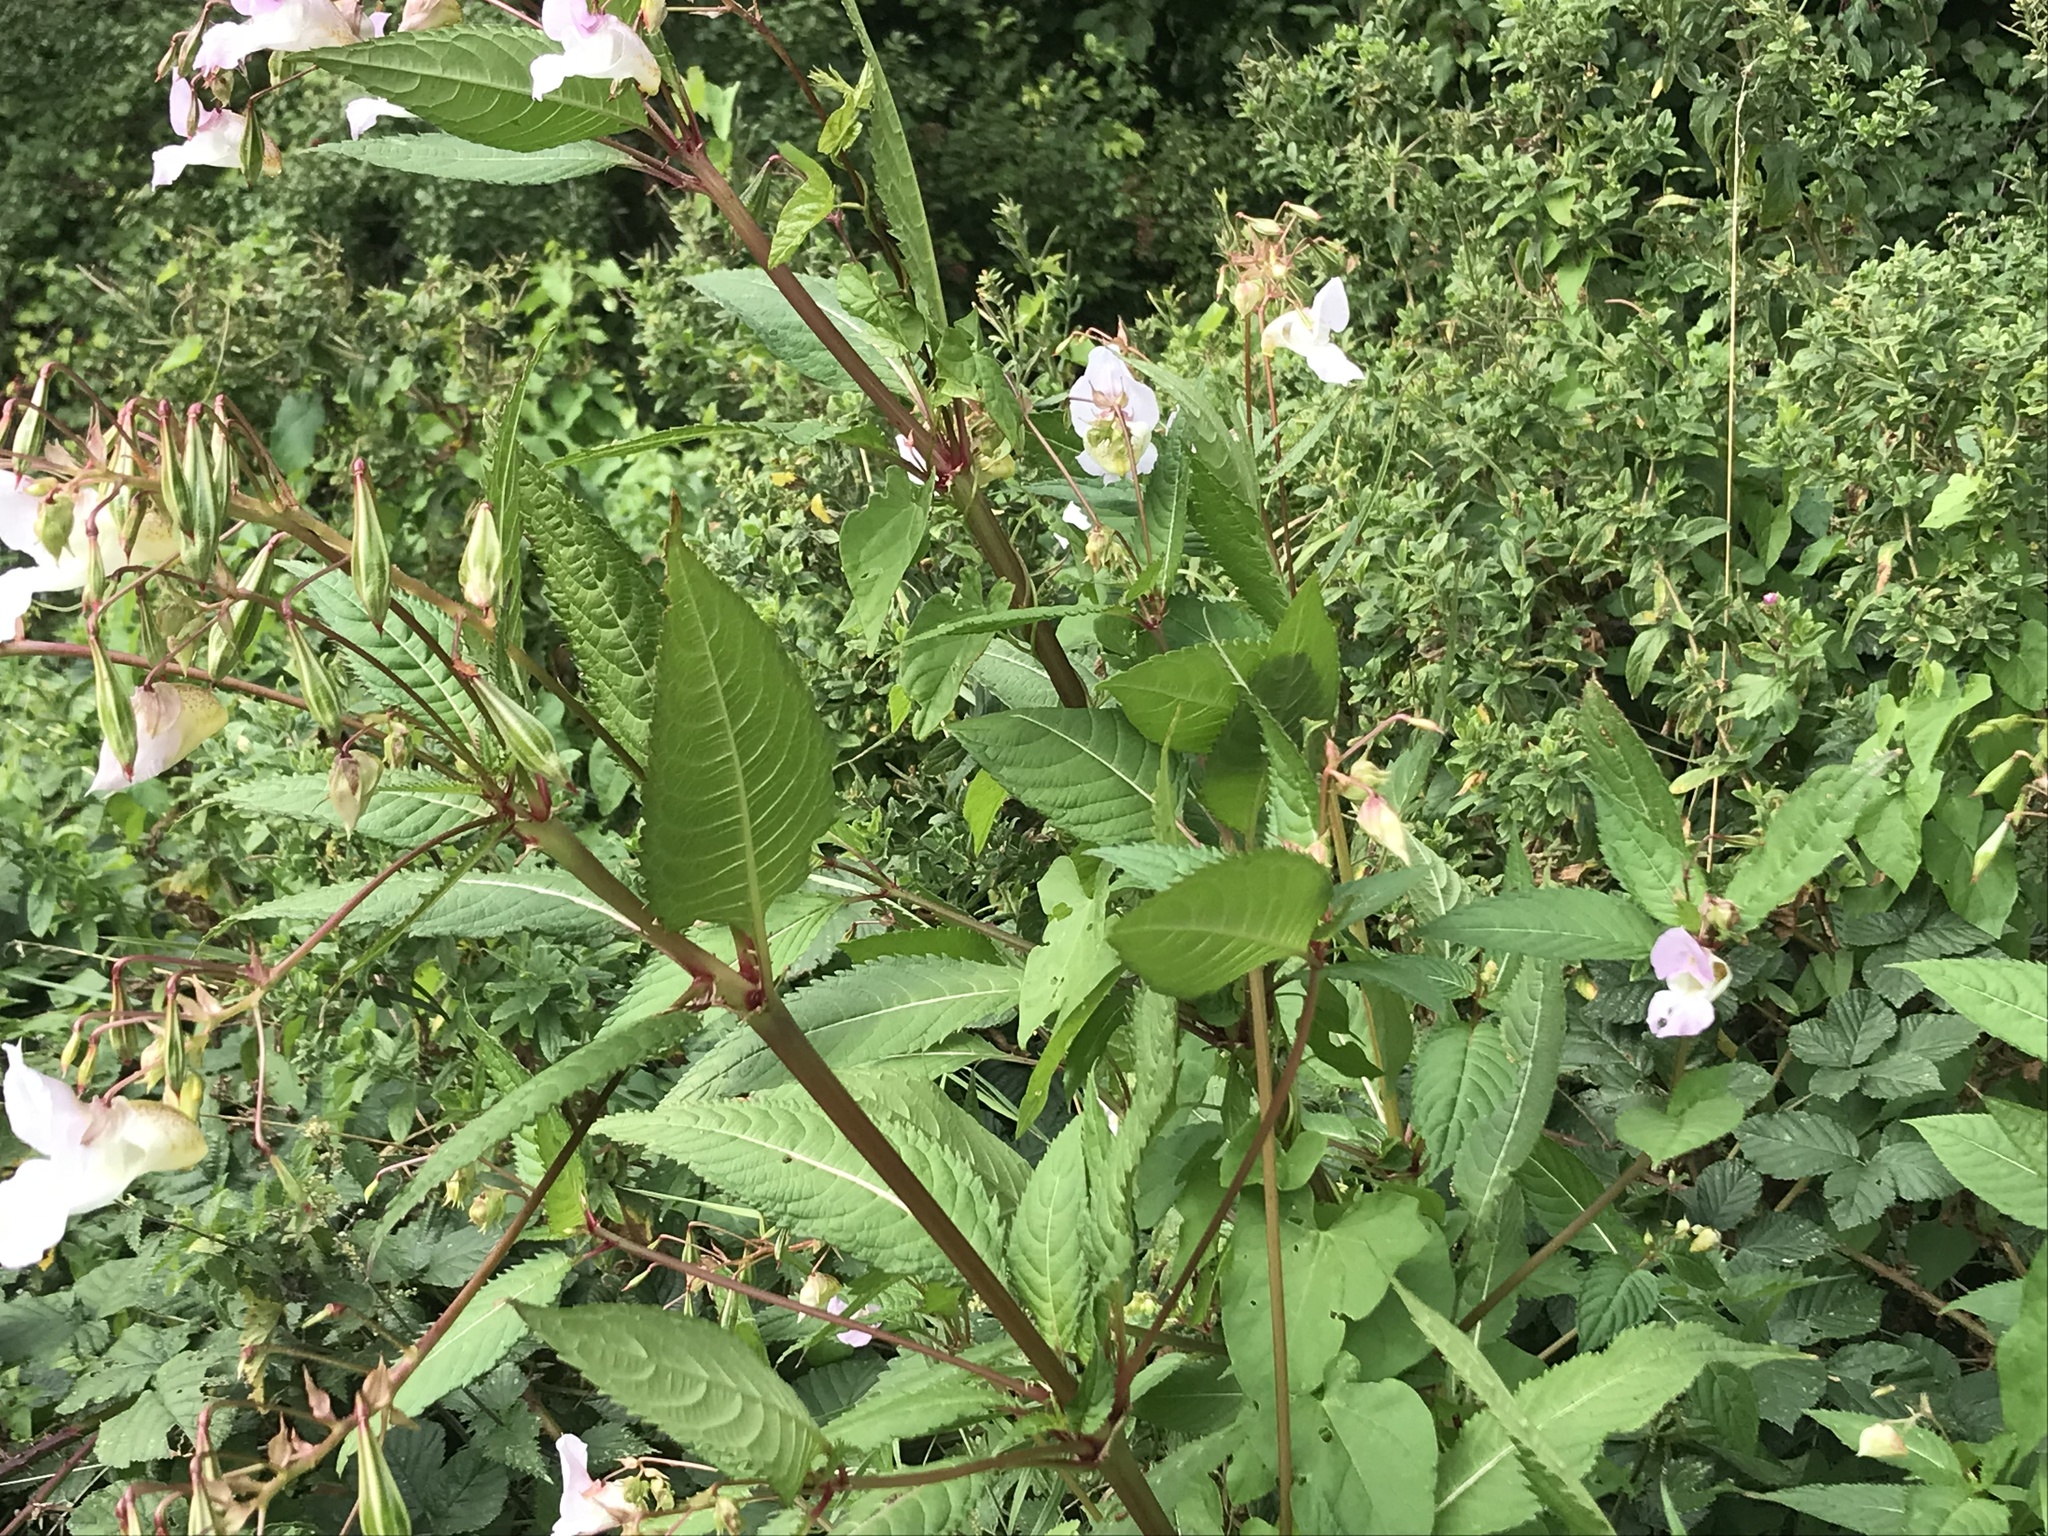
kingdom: Plantae
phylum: Tracheophyta
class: Magnoliopsida
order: Ericales
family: Balsaminaceae
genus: Impatiens
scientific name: Impatiens glandulifera
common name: Himalayan balsam
